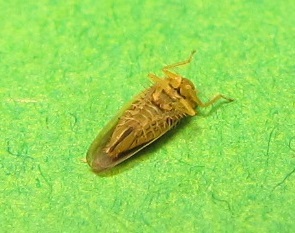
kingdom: Animalia
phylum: Arthropoda
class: Insecta
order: Hemiptera
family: Cicadellidae
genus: Macrosteles
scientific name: Macrosteles lepidus
